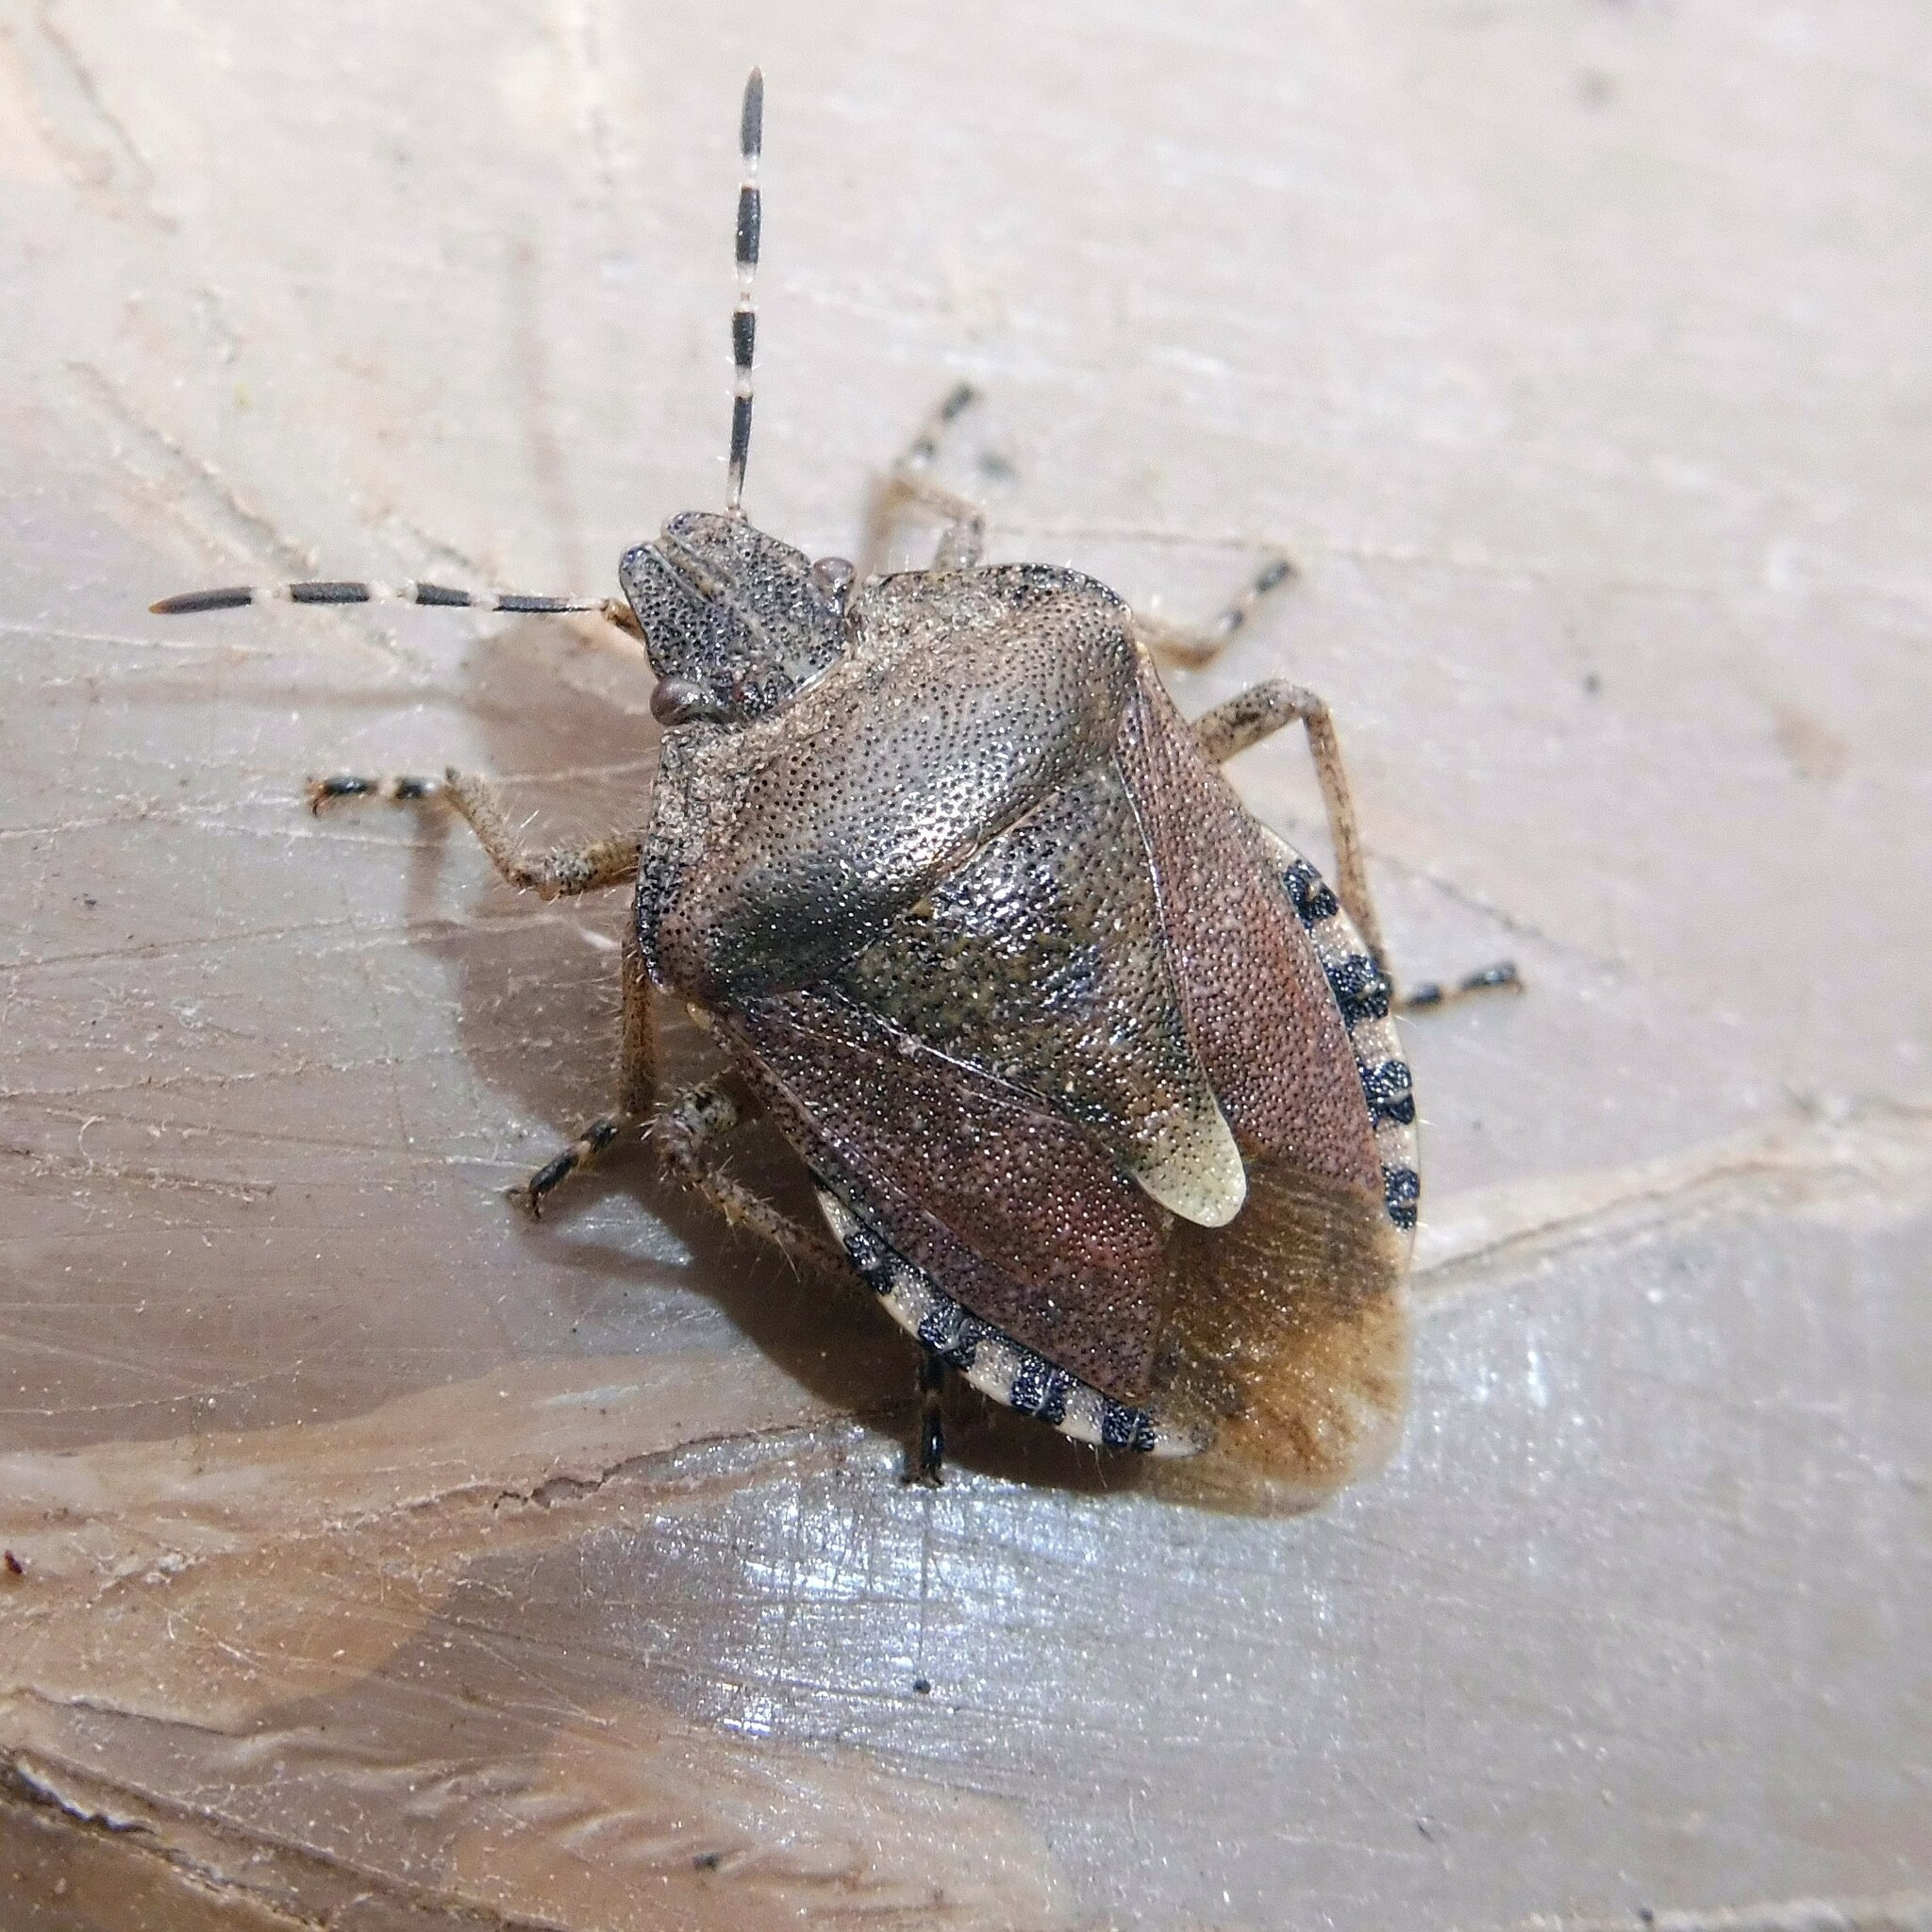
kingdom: Animalia
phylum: Arthropoda
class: Insecta
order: Hemiptera
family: Pentatomidae
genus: Dolycoris
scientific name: Dolycoris baccarum
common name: Sloe bug
